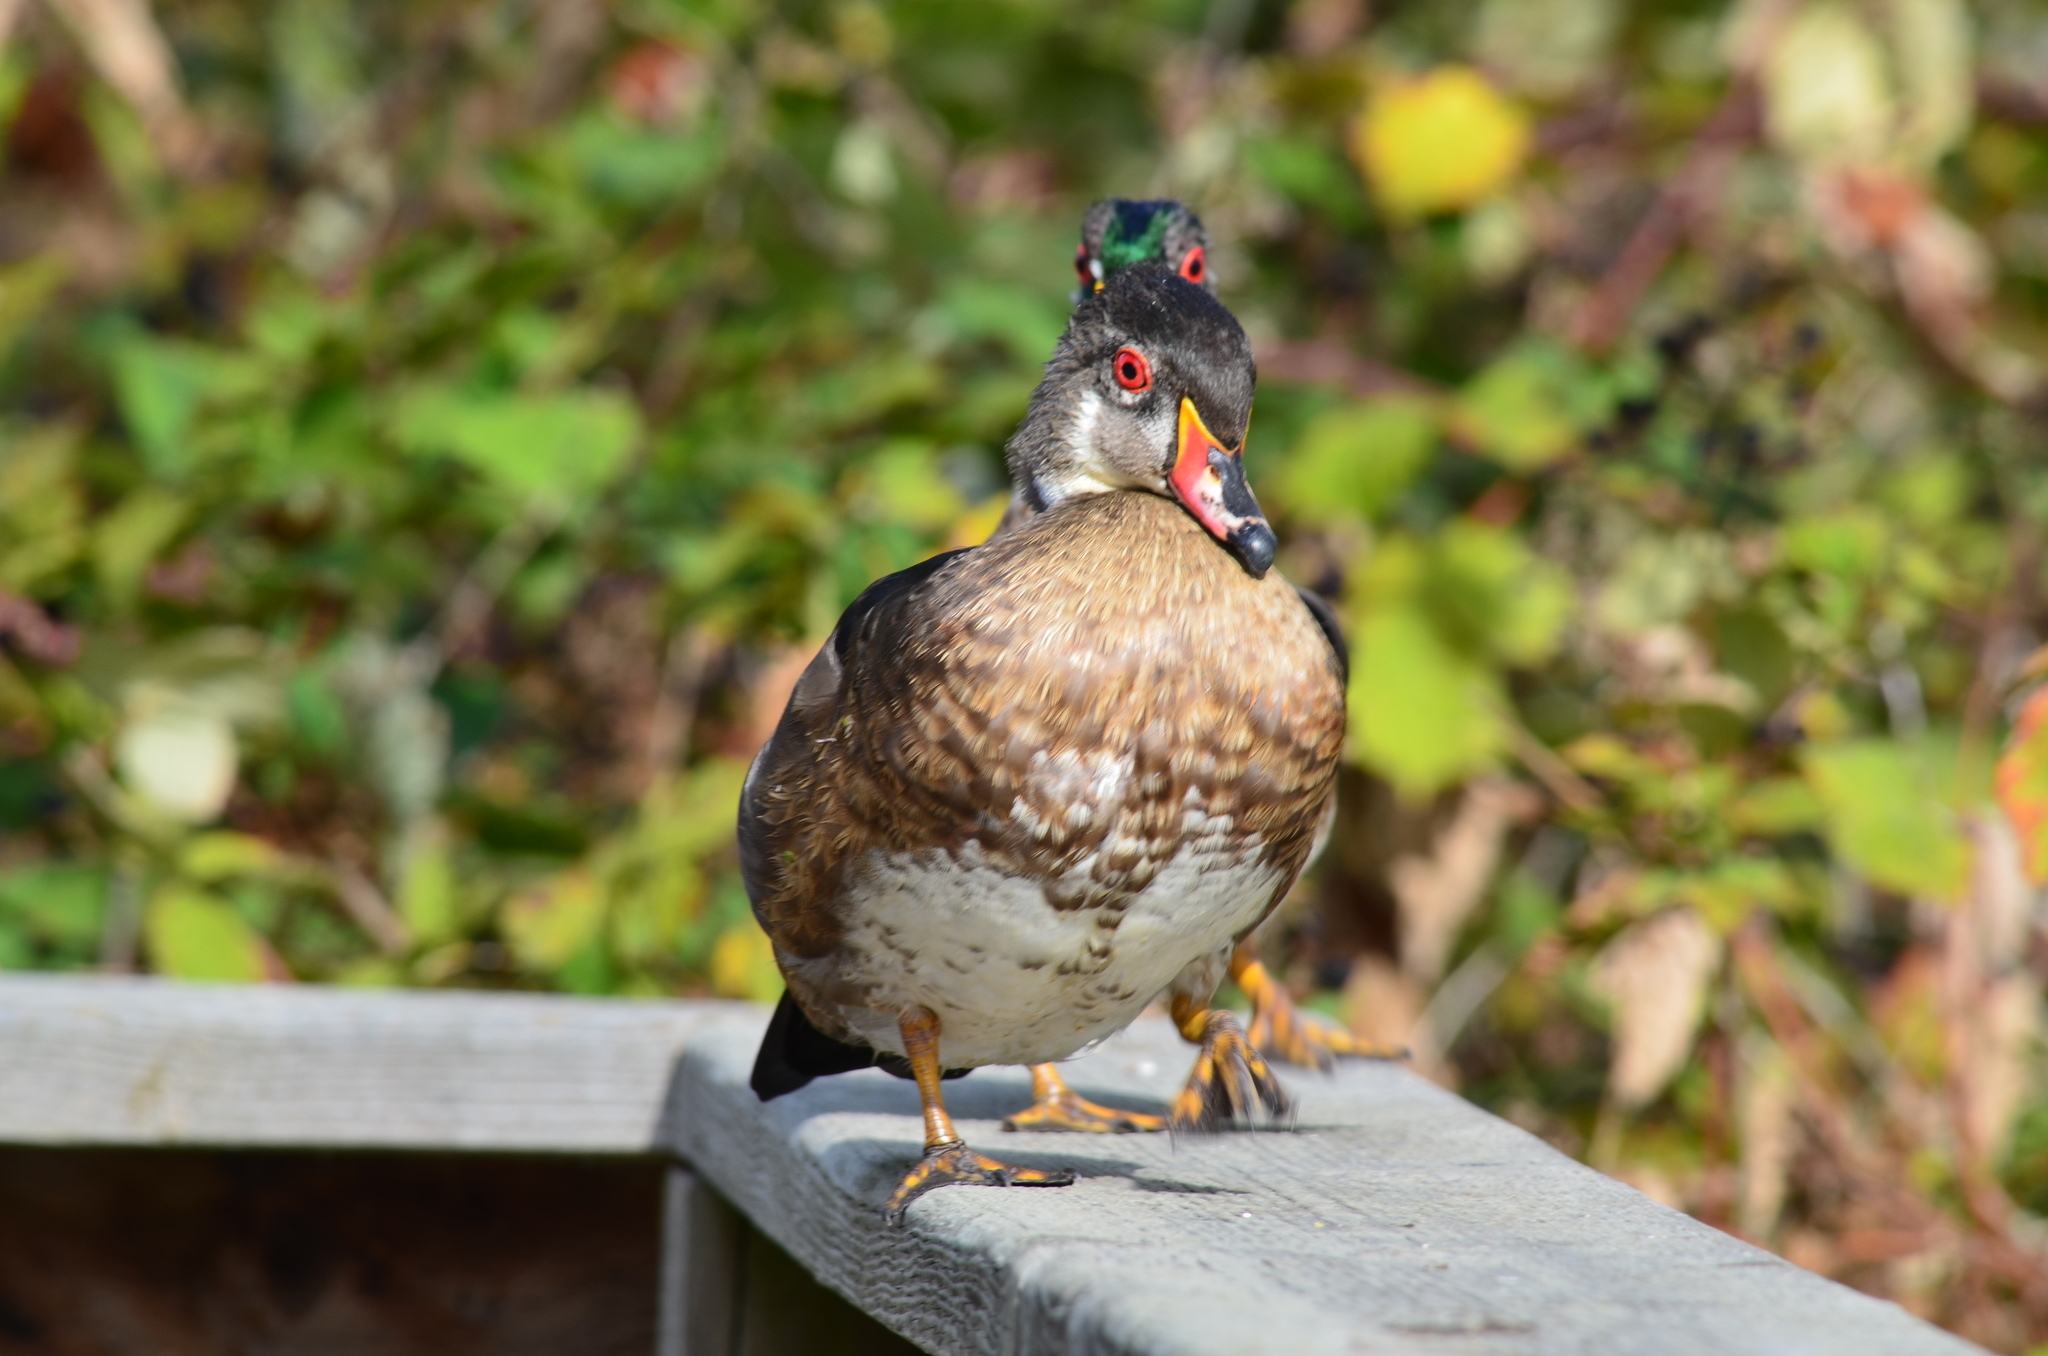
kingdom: Animalia
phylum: Chordata
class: Aves
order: Anseriformes
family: Anatidae
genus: Aix
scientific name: Aix sponsa
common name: Wood duck
